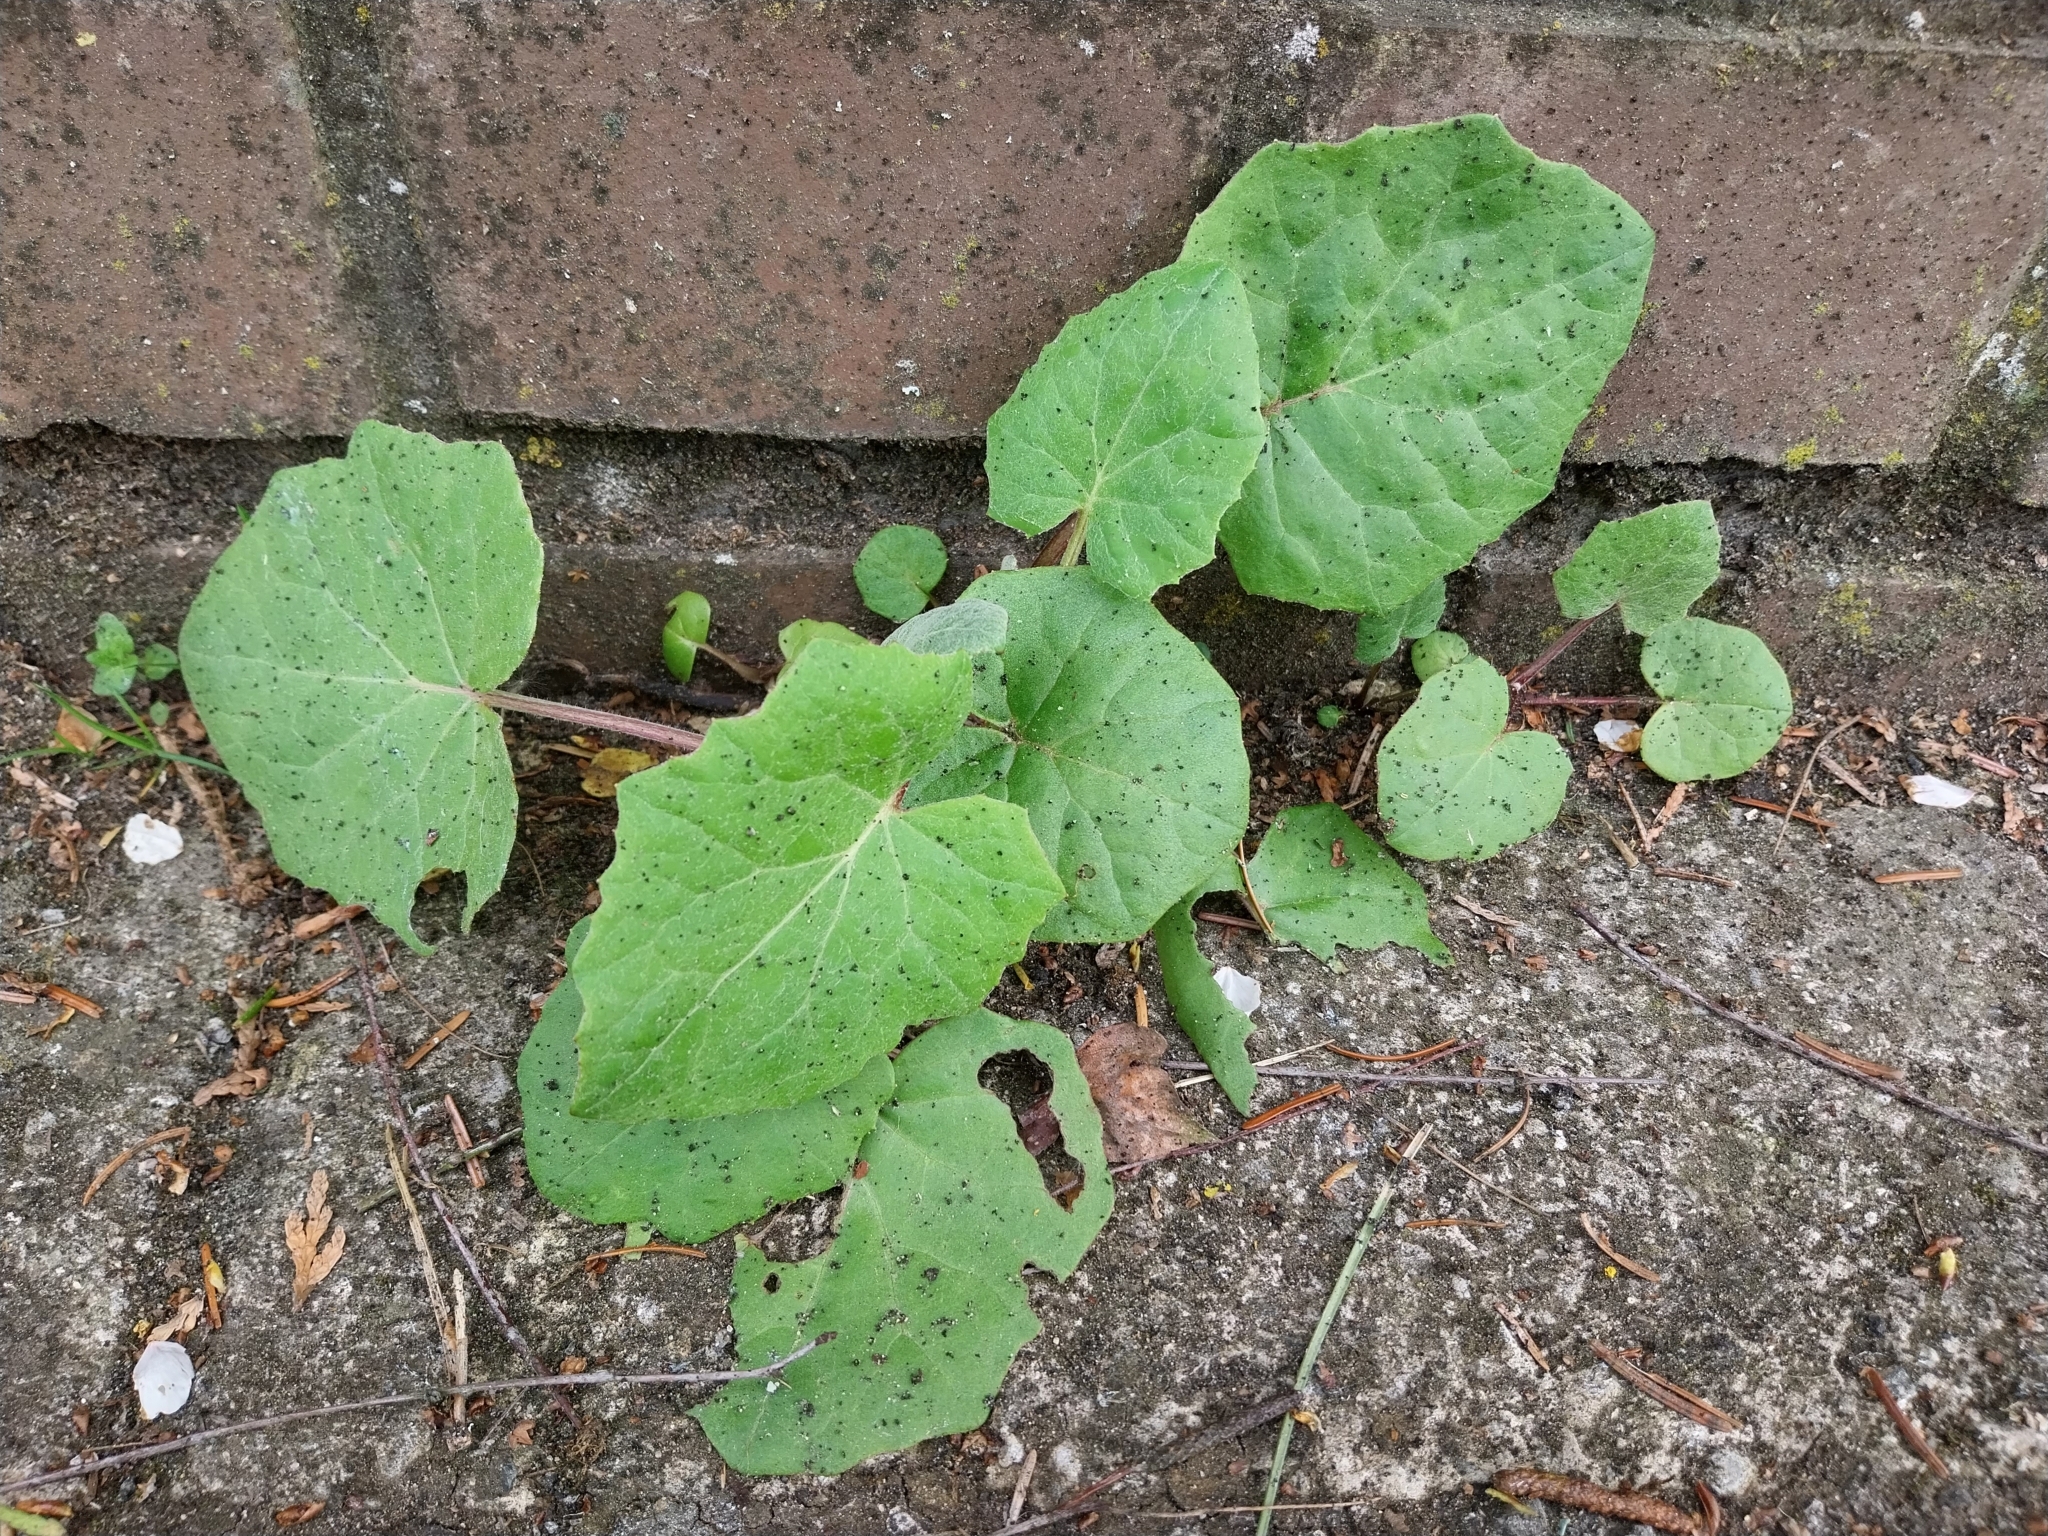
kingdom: Plantae
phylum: Tracheophyta
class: Magnoliopsida
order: Asterales
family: Asteraceae
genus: Tussilago
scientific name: Tussilago farfara
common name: Coltsfoot
